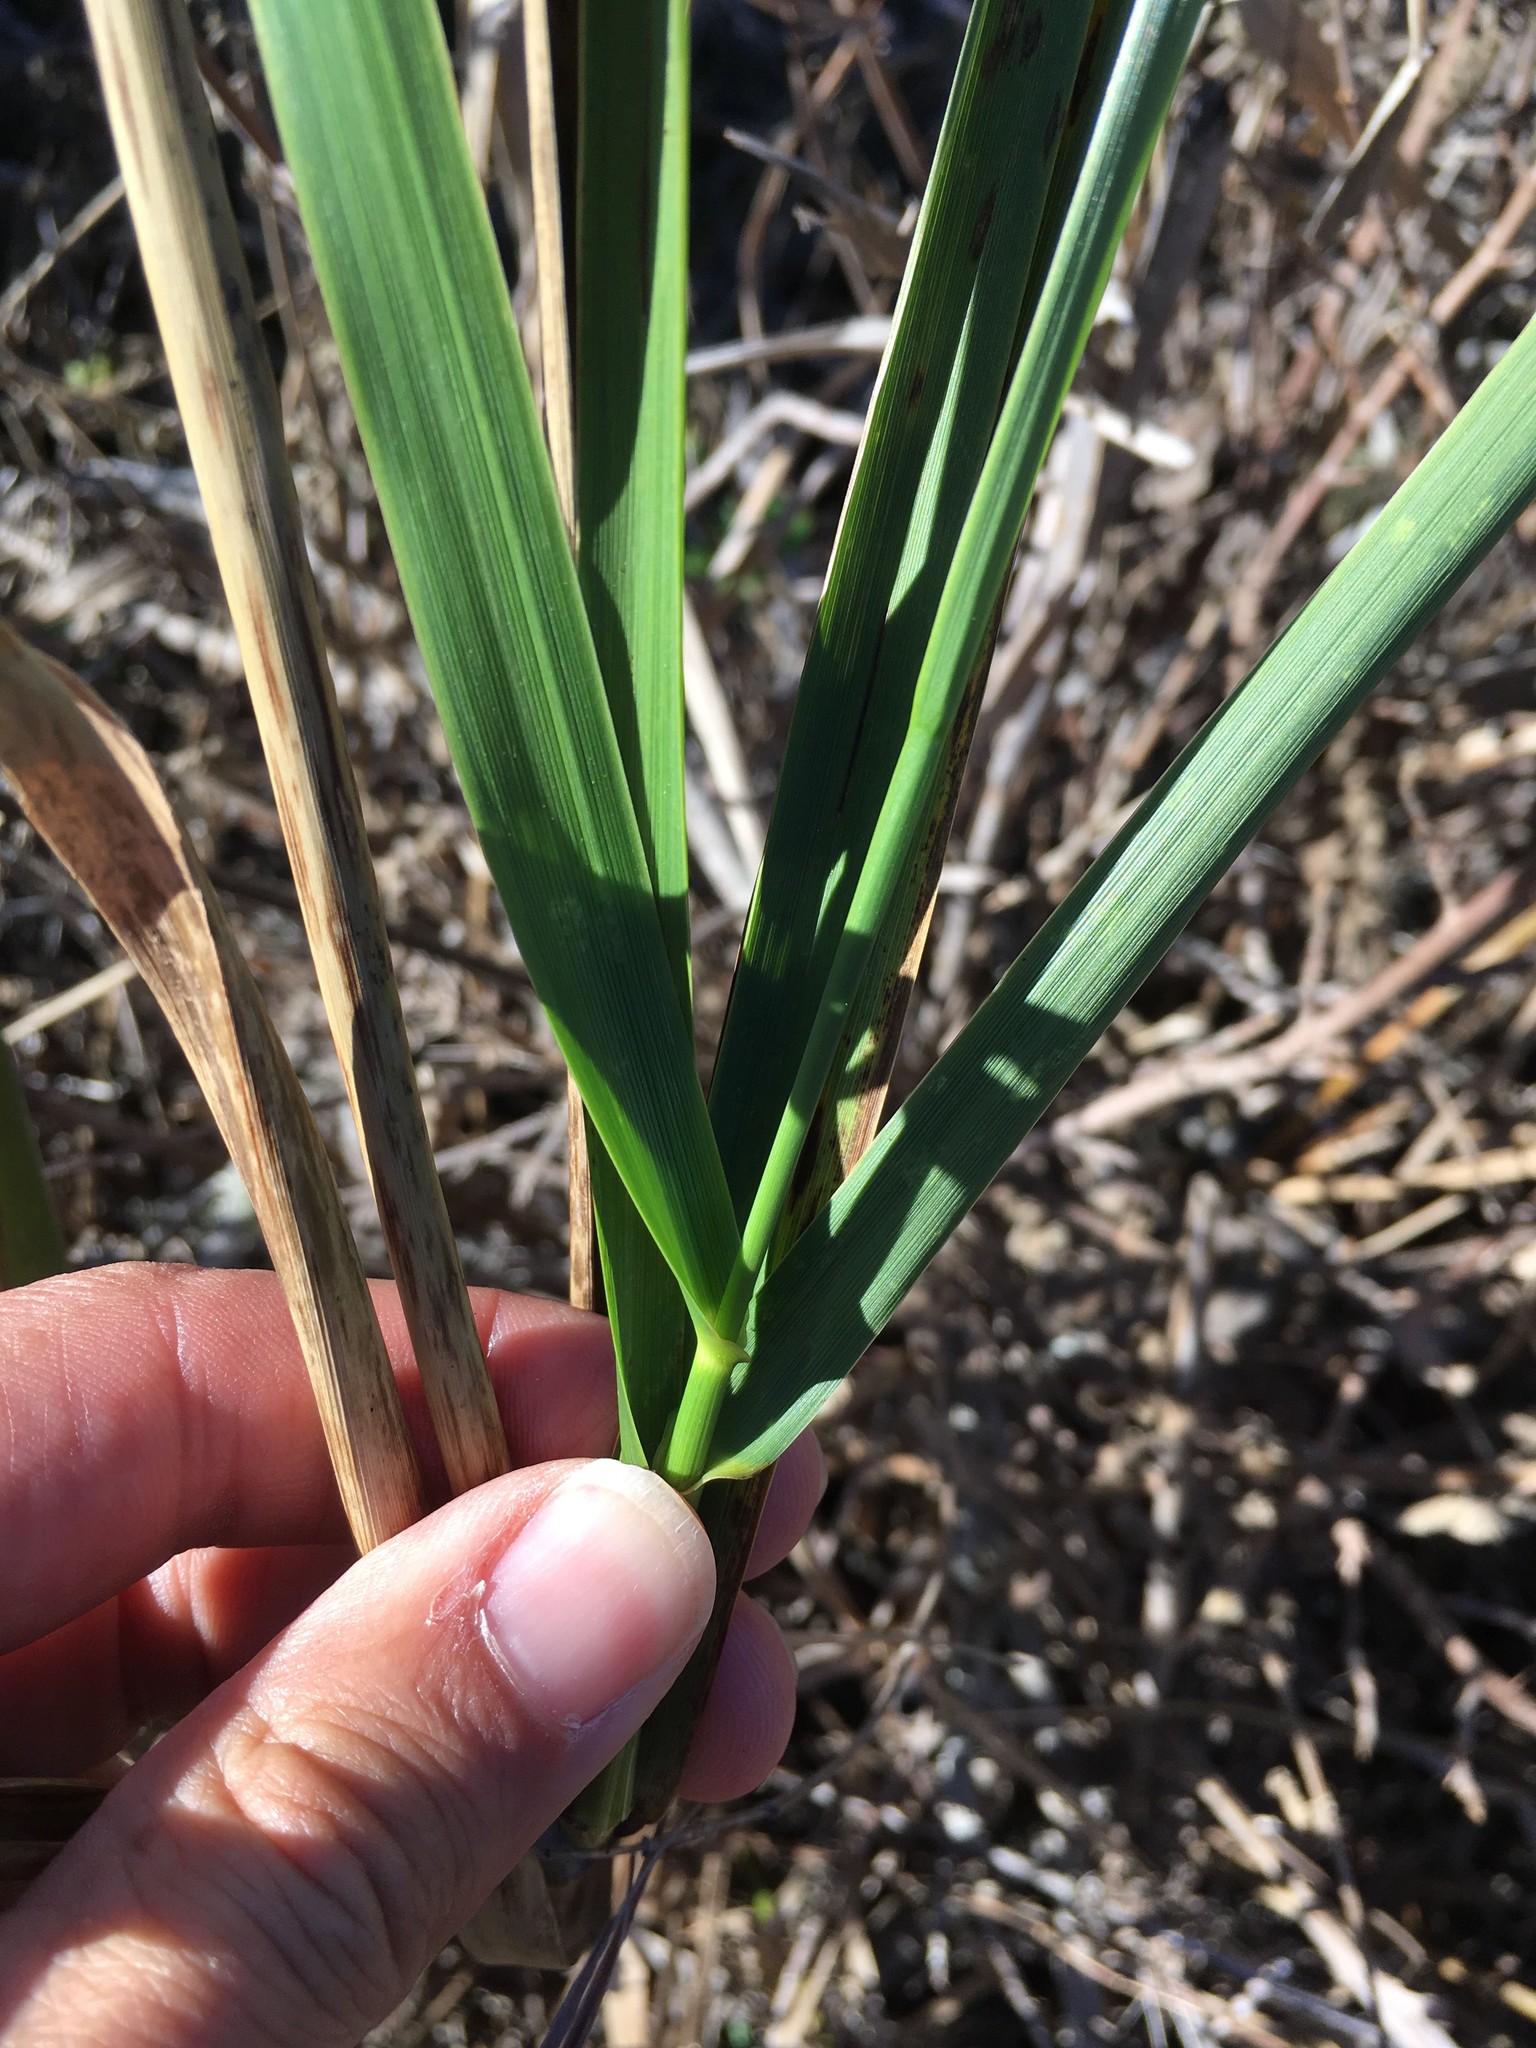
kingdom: Plantae
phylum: Tracheophyta
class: Liliopsida
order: Poales
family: Poaceae
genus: Leymus
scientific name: Leymus condensatus
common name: Giant wild rye
